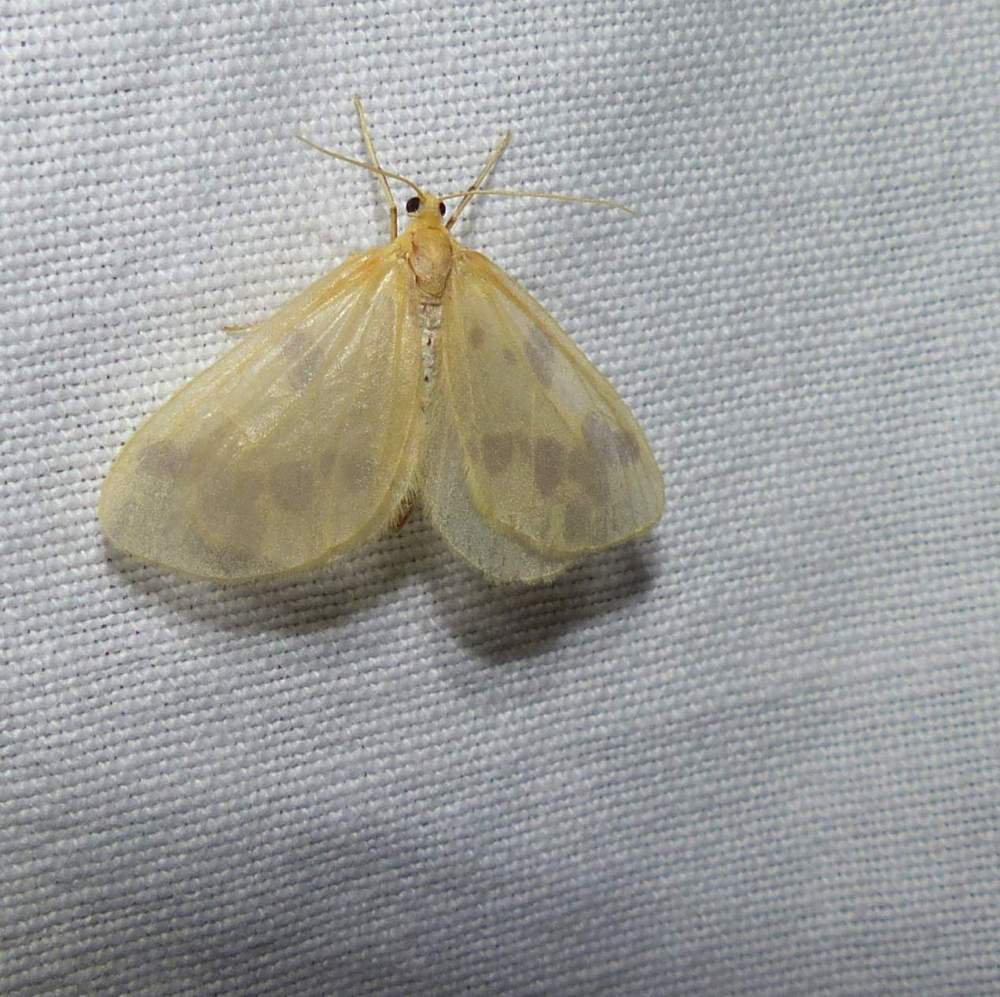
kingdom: Animalia
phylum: Arthropoda
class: Insecta
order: Lepidoptera
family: Geometridae
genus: Eubaphe
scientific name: Eubaphe mendica
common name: Beggar
